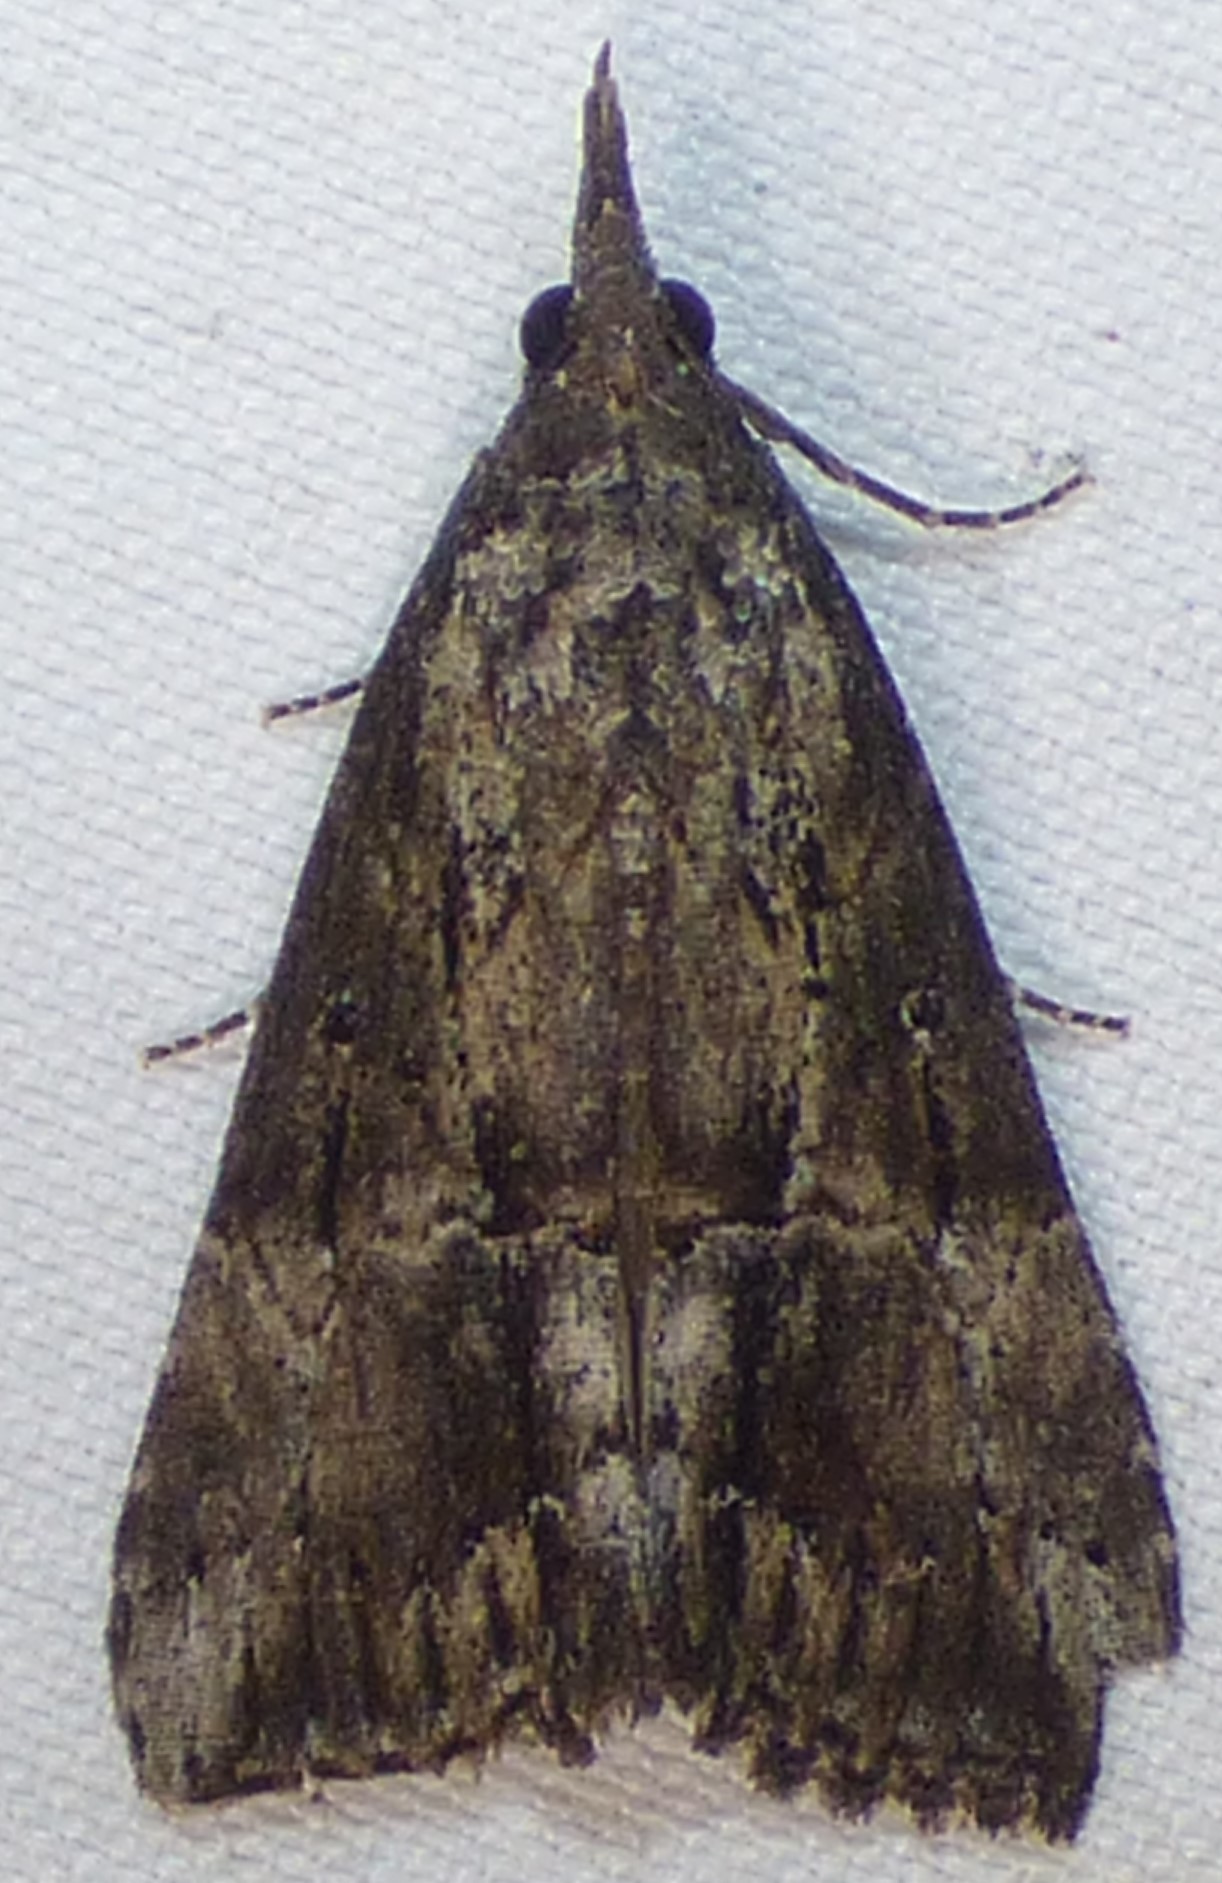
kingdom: Animalia
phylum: Arthropoda
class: Insecta
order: Lepidoptera
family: Erebidae
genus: Hypena
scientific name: Hypena scabra
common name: Green cloverworm
